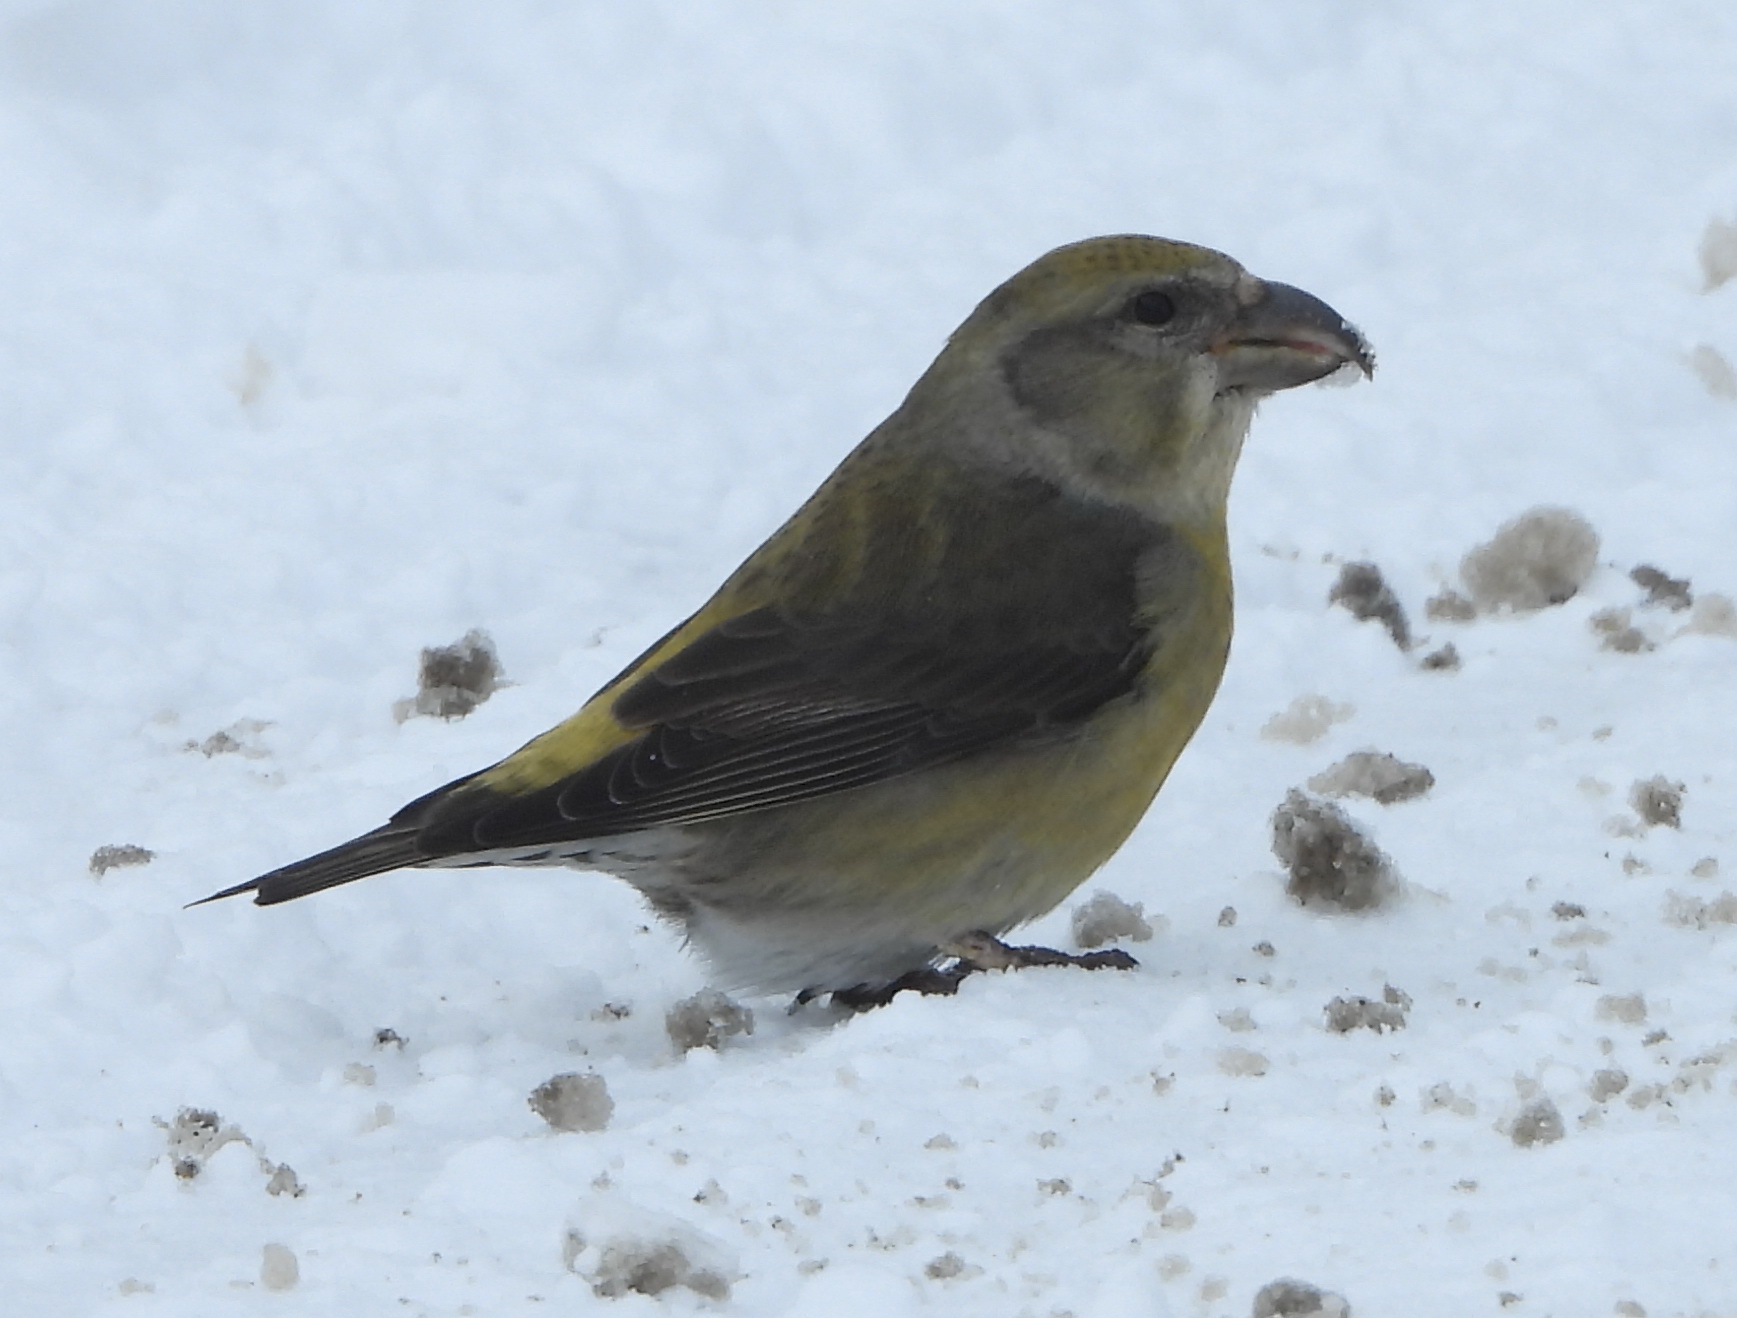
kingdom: Animalia
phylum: Chordata
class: Aves
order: Passeriformes
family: Fringillidae
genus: Loxia
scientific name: Loxia curvirostra
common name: Red crossbill
